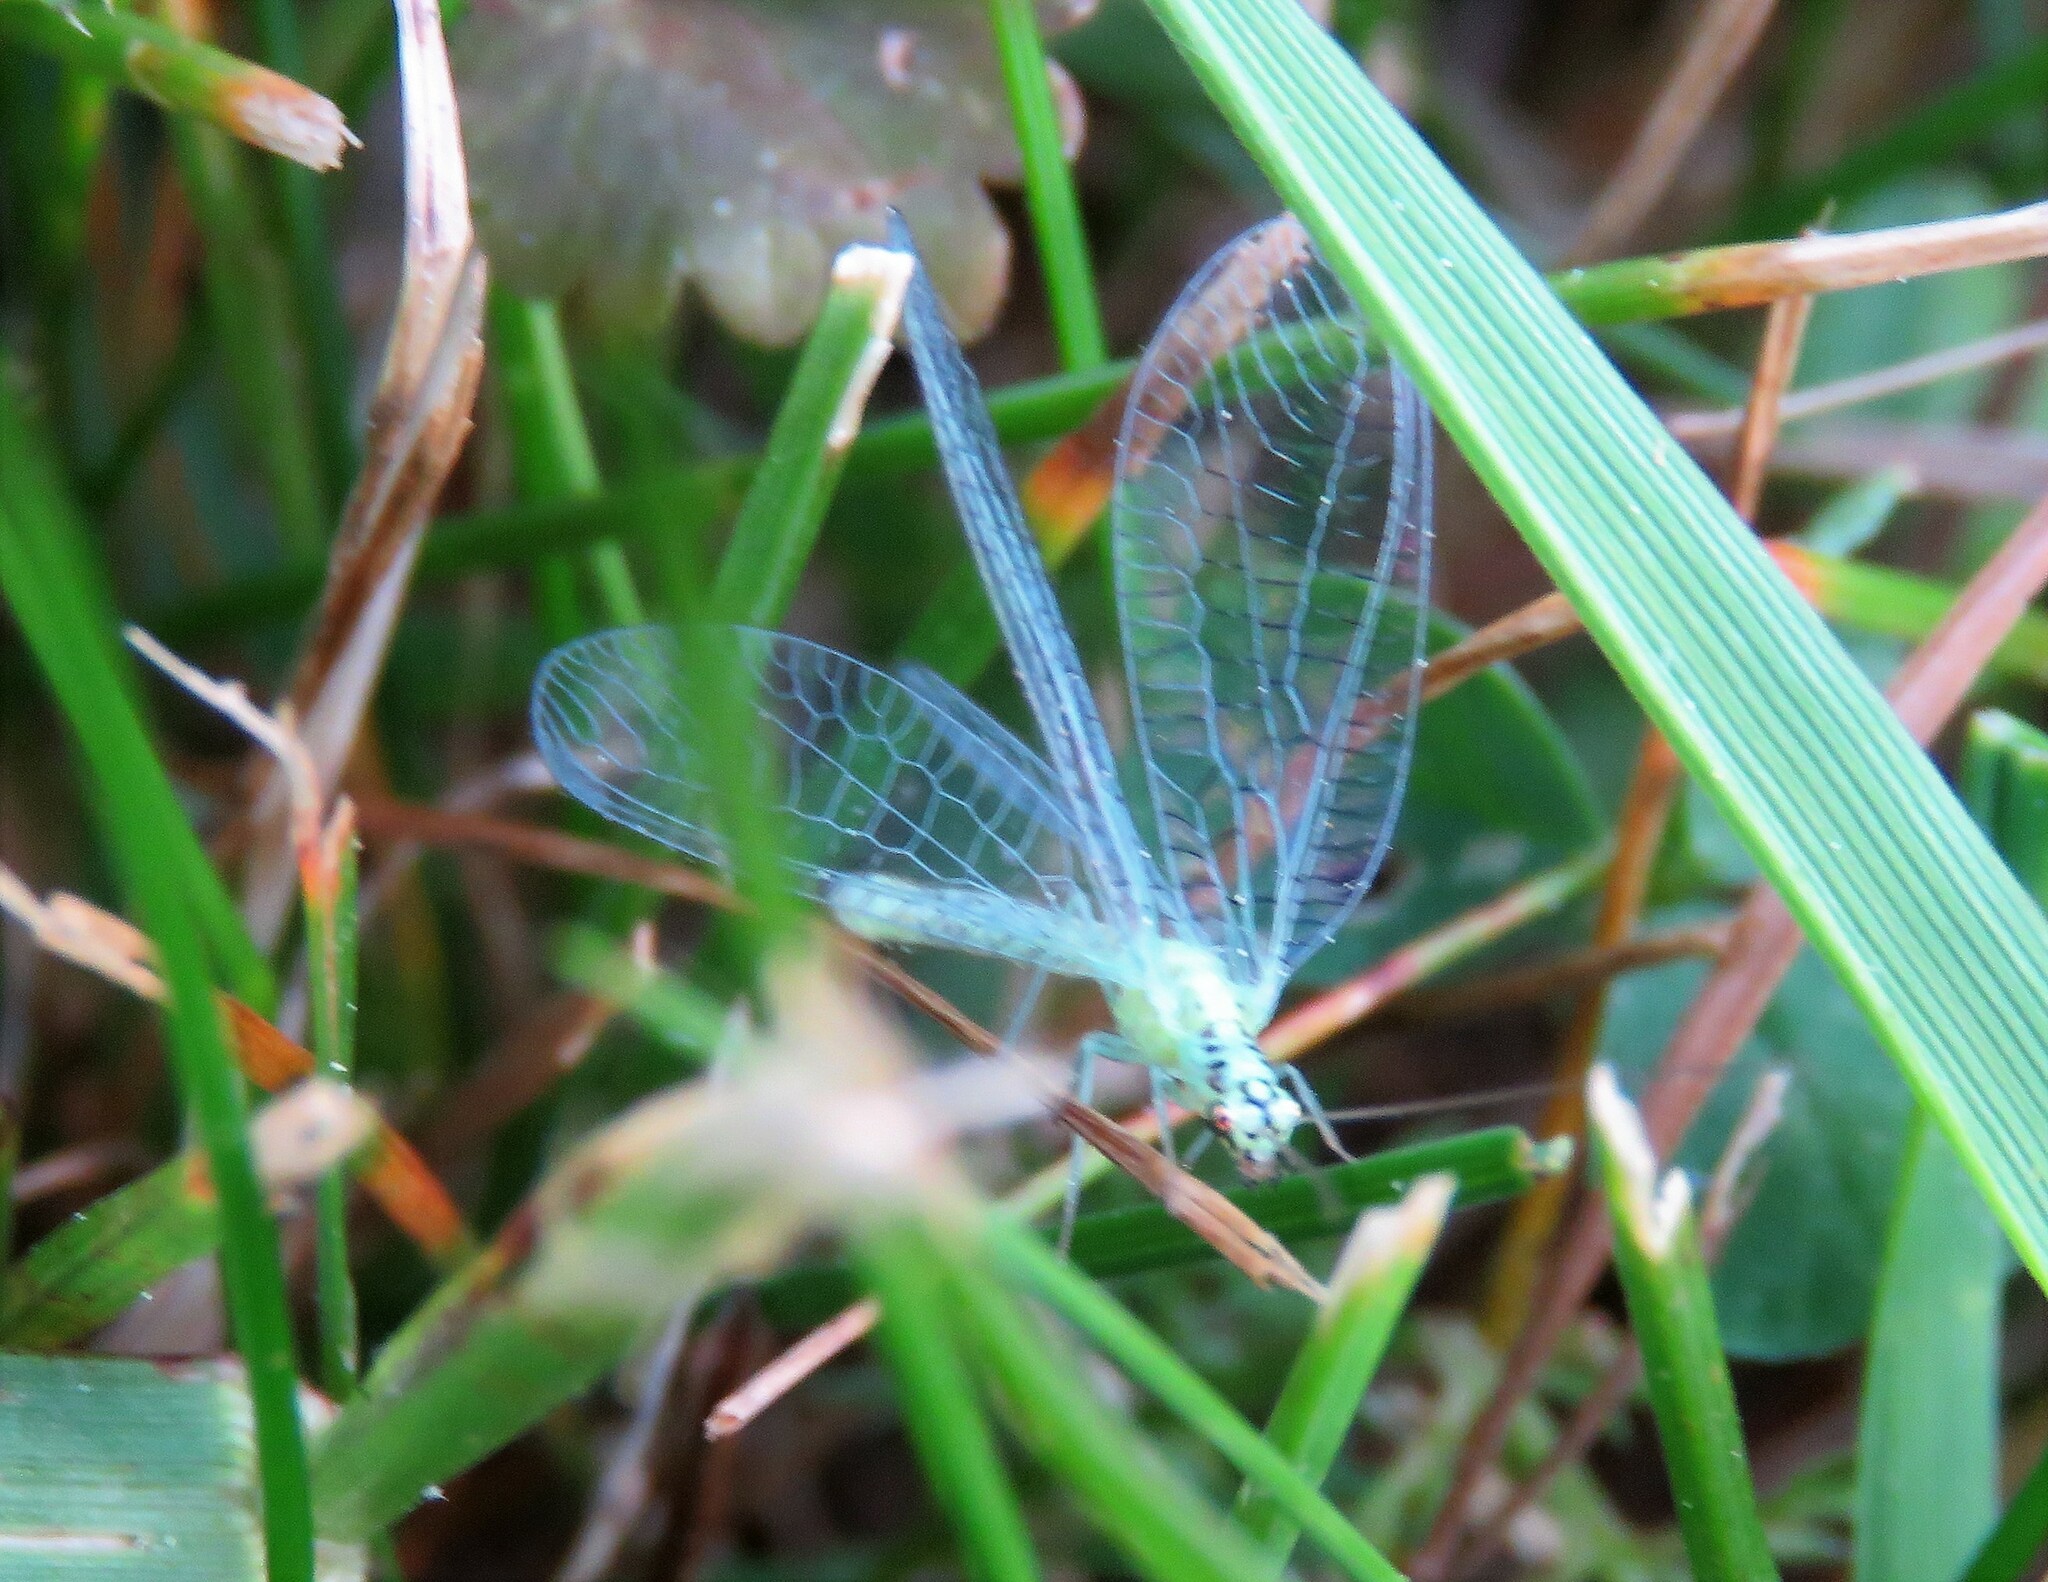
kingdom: Animalia
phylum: Arthropoda
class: Insecta
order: Neuroptera
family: Chrysopidae
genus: Chrysopa
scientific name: Chrysopa chi
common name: X-marked green lacewing
